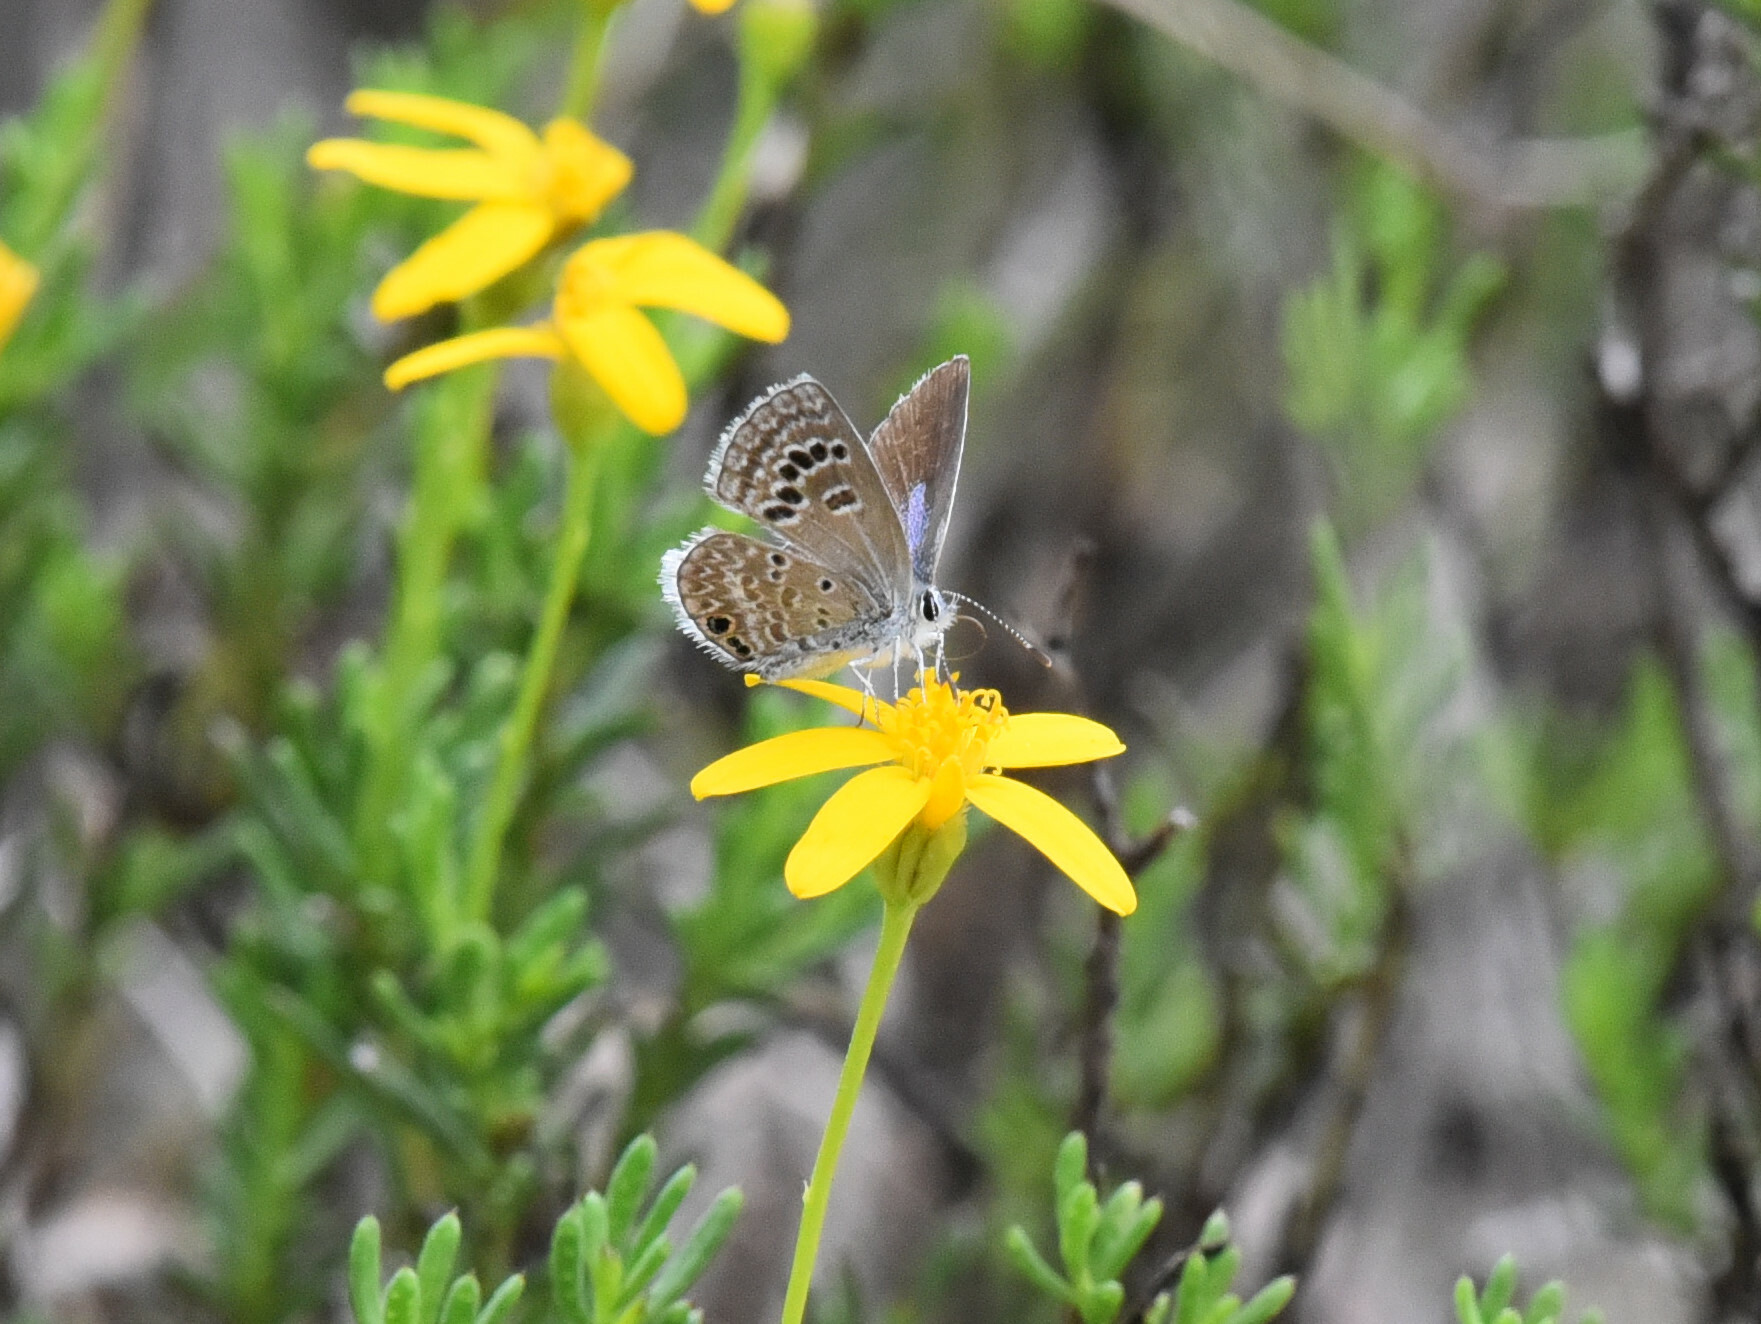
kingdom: Animalia
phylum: Arthropoda
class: Insecta
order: Lepidoptera
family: Lycaenidae
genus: Echinargus
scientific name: Echinargus isola
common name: Reakirt's blue
